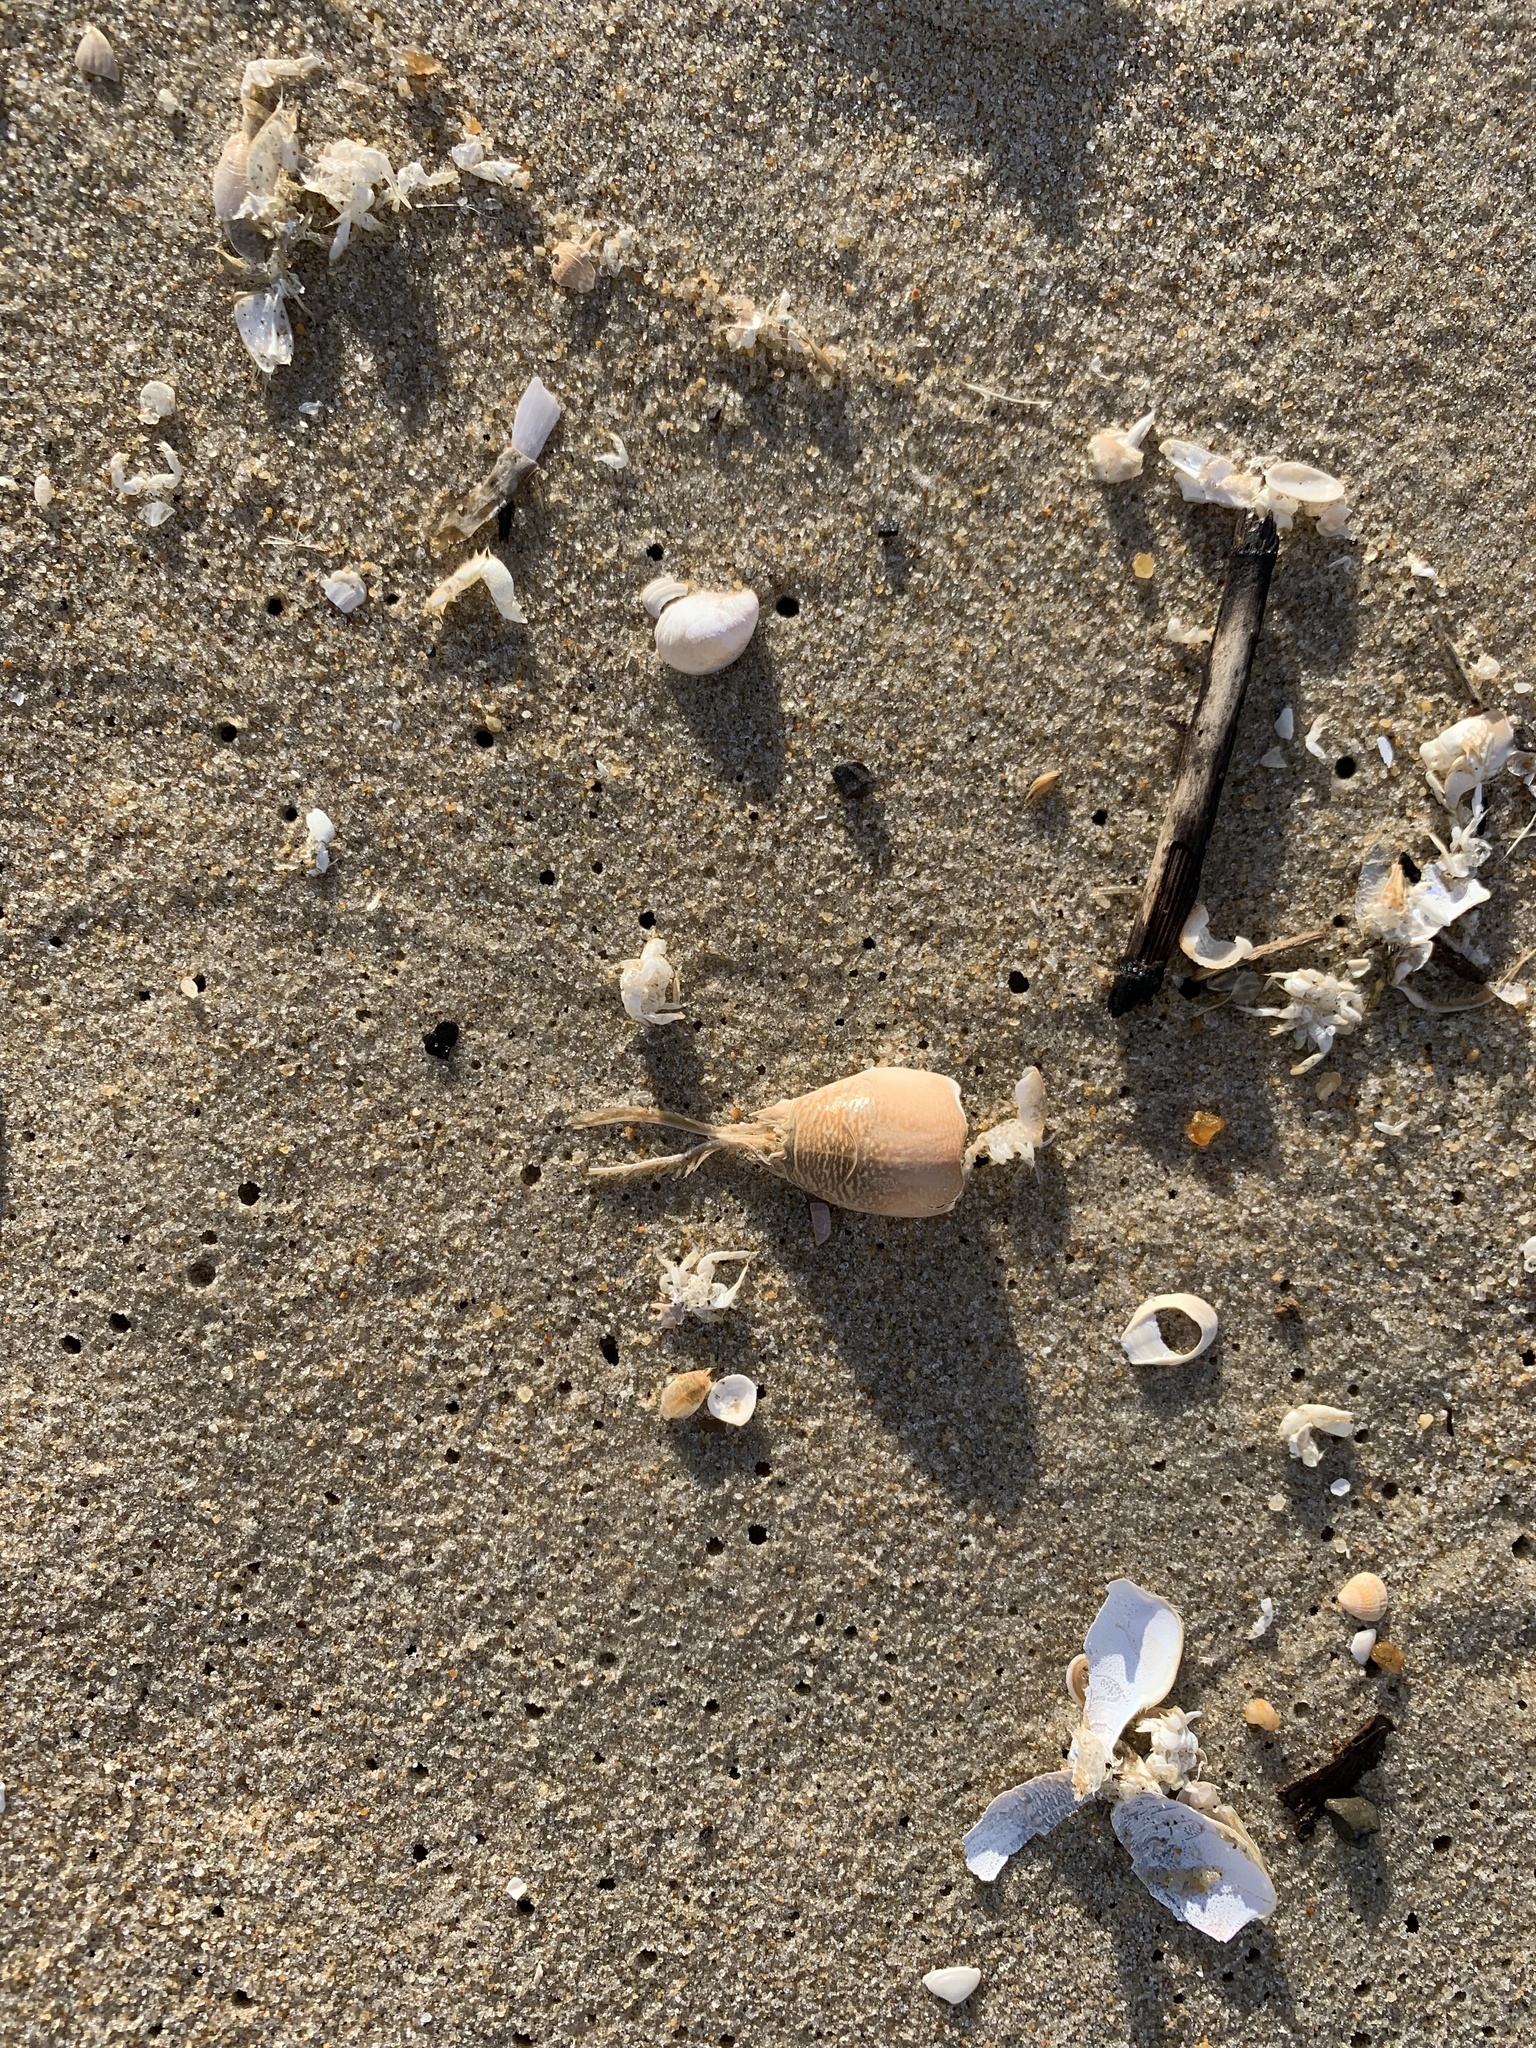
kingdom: Animalia
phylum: Arthropoda
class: Malacostraca
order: Decapoda
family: Hippidae
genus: Emerita
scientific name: Emerita talpoida
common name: Atlantic sand crab
